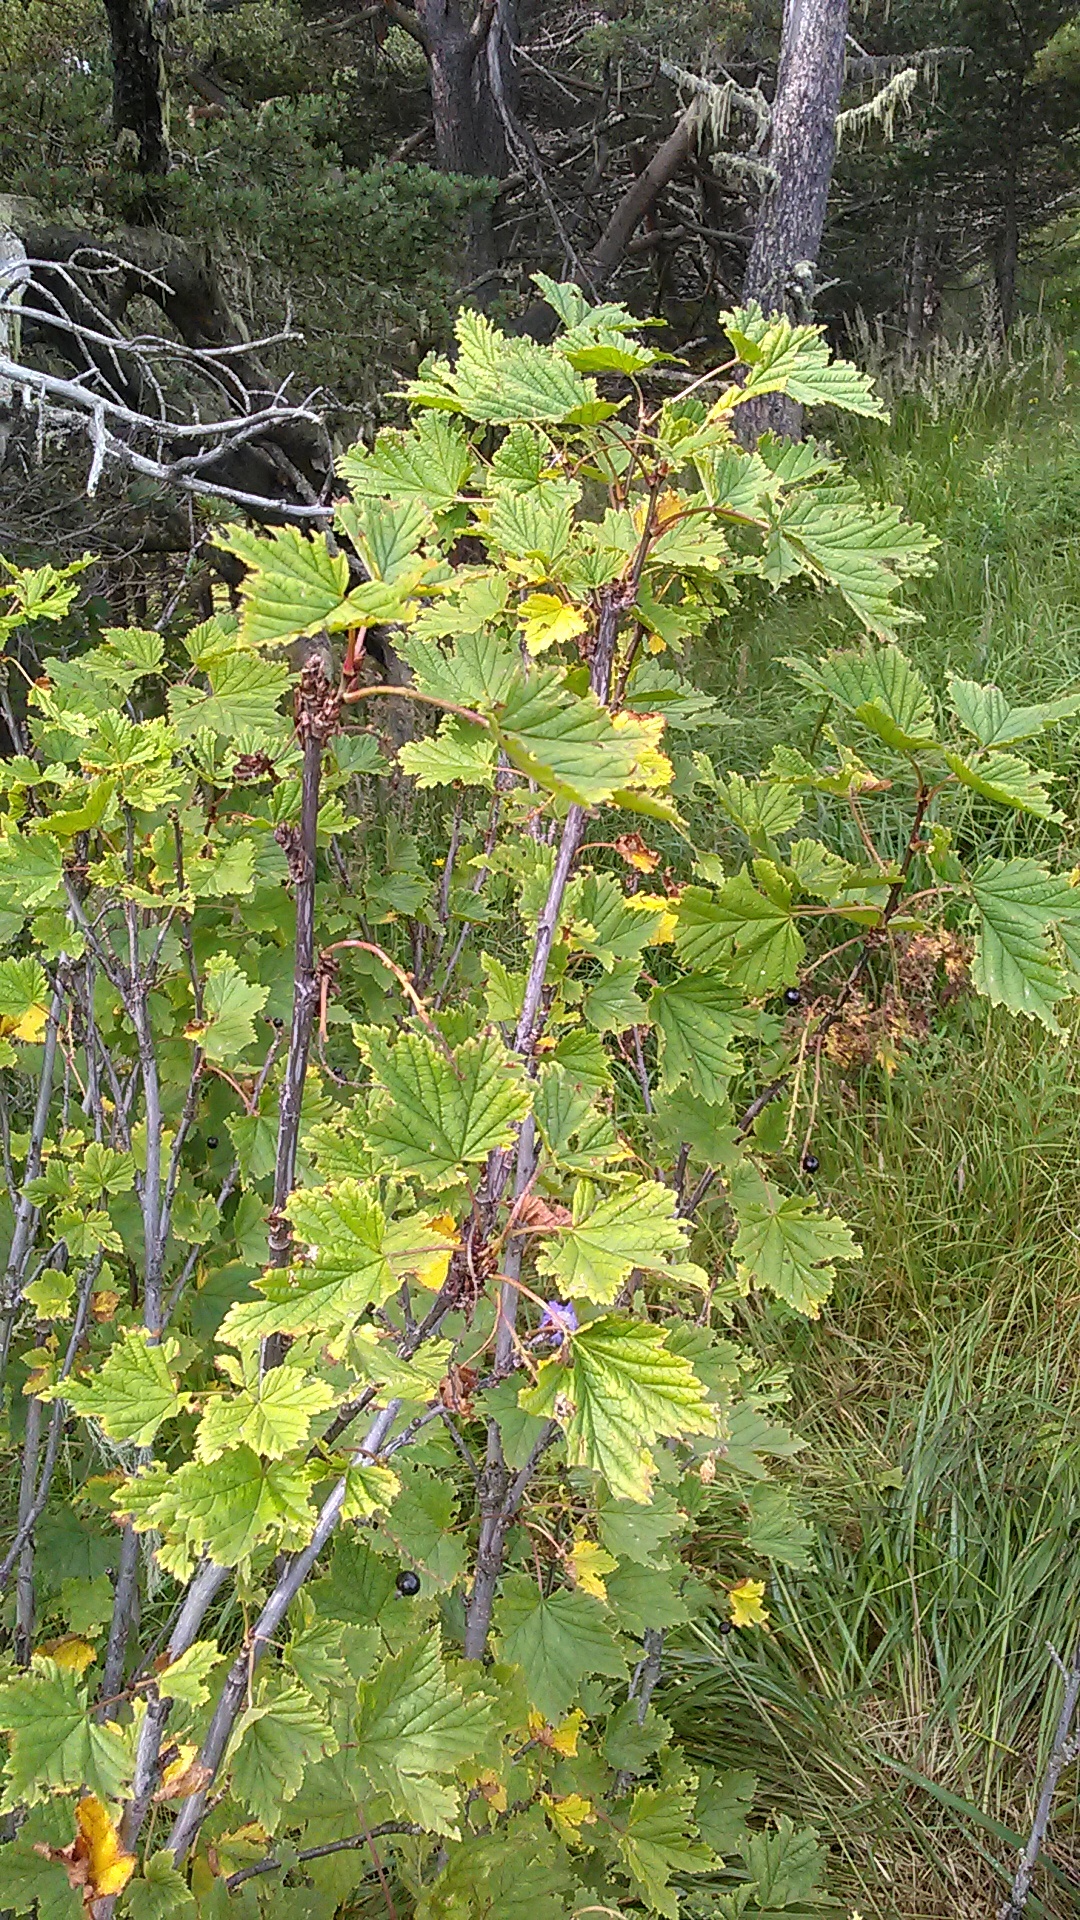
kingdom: Plantae
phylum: Tracheophyta
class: Magnoliopsida
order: Saxifragales
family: Grossulariaceae
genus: Ribes
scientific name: Ribes biebersteinii
